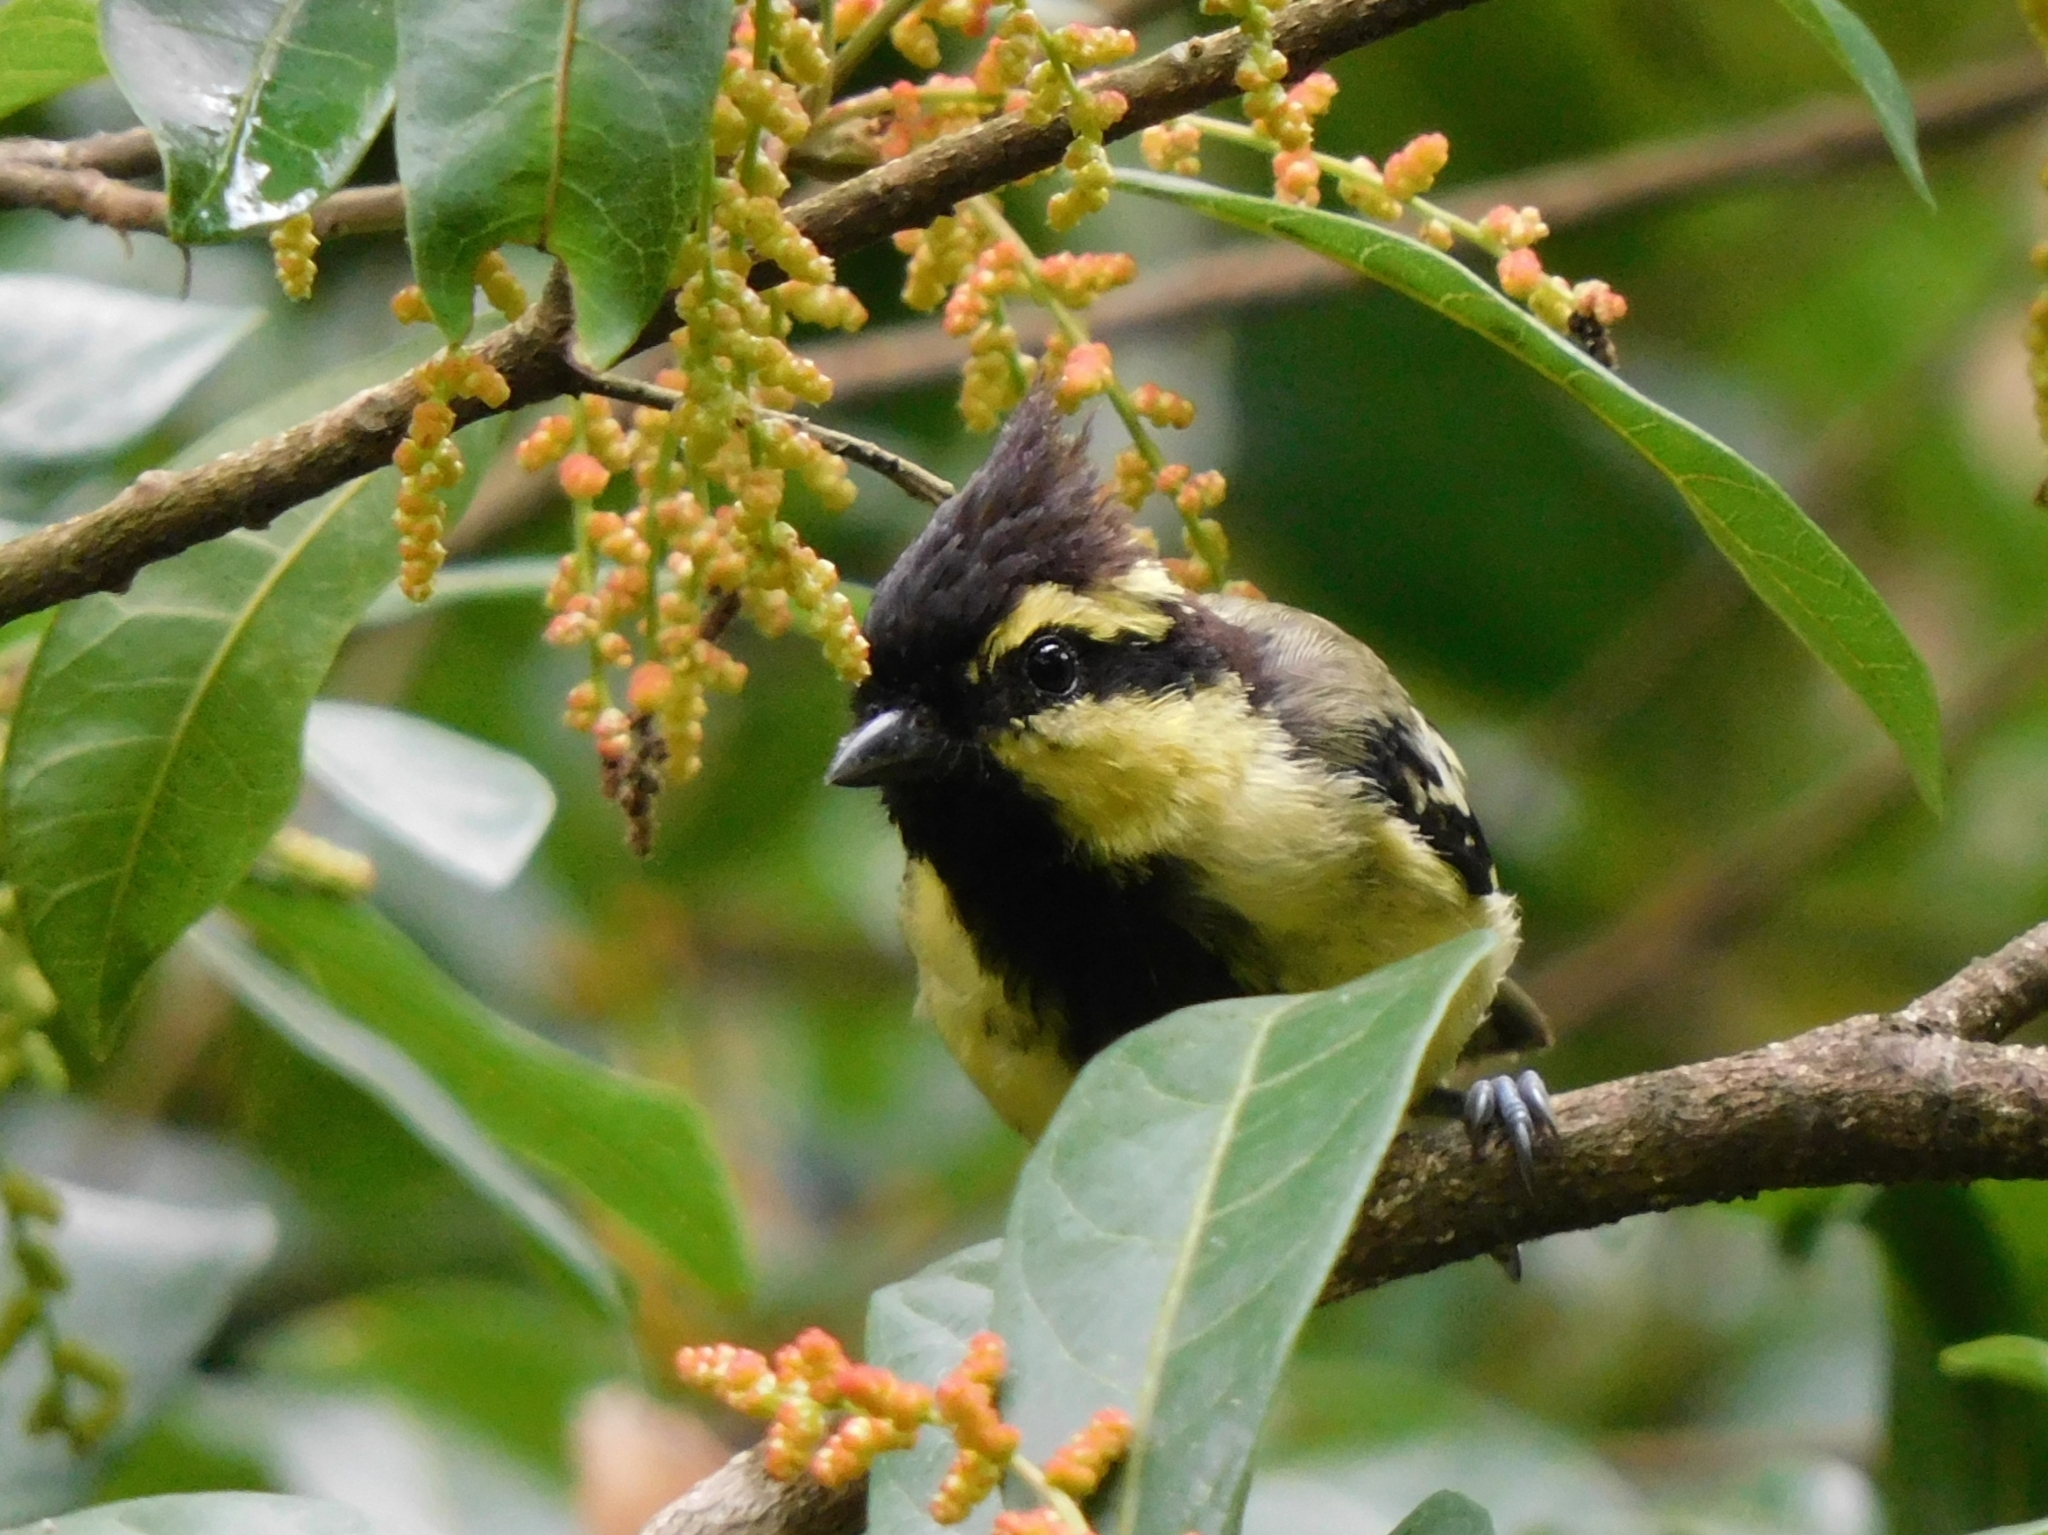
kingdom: Animalia
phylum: Chordata
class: Aves
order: Passeriformes
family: Paridae
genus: Parus
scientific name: Parus xanthogenys
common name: Black-lored tit
